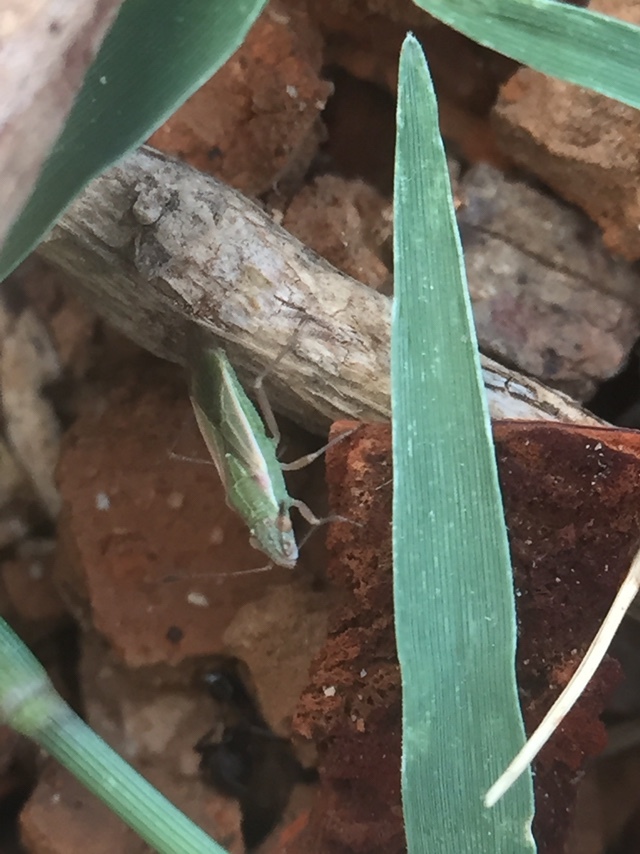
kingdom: Animalia
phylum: Arthropoda
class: Insecta
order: Hemiptera
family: Rhopalidae
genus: Agraphopus
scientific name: Agraphopus lethierryi
